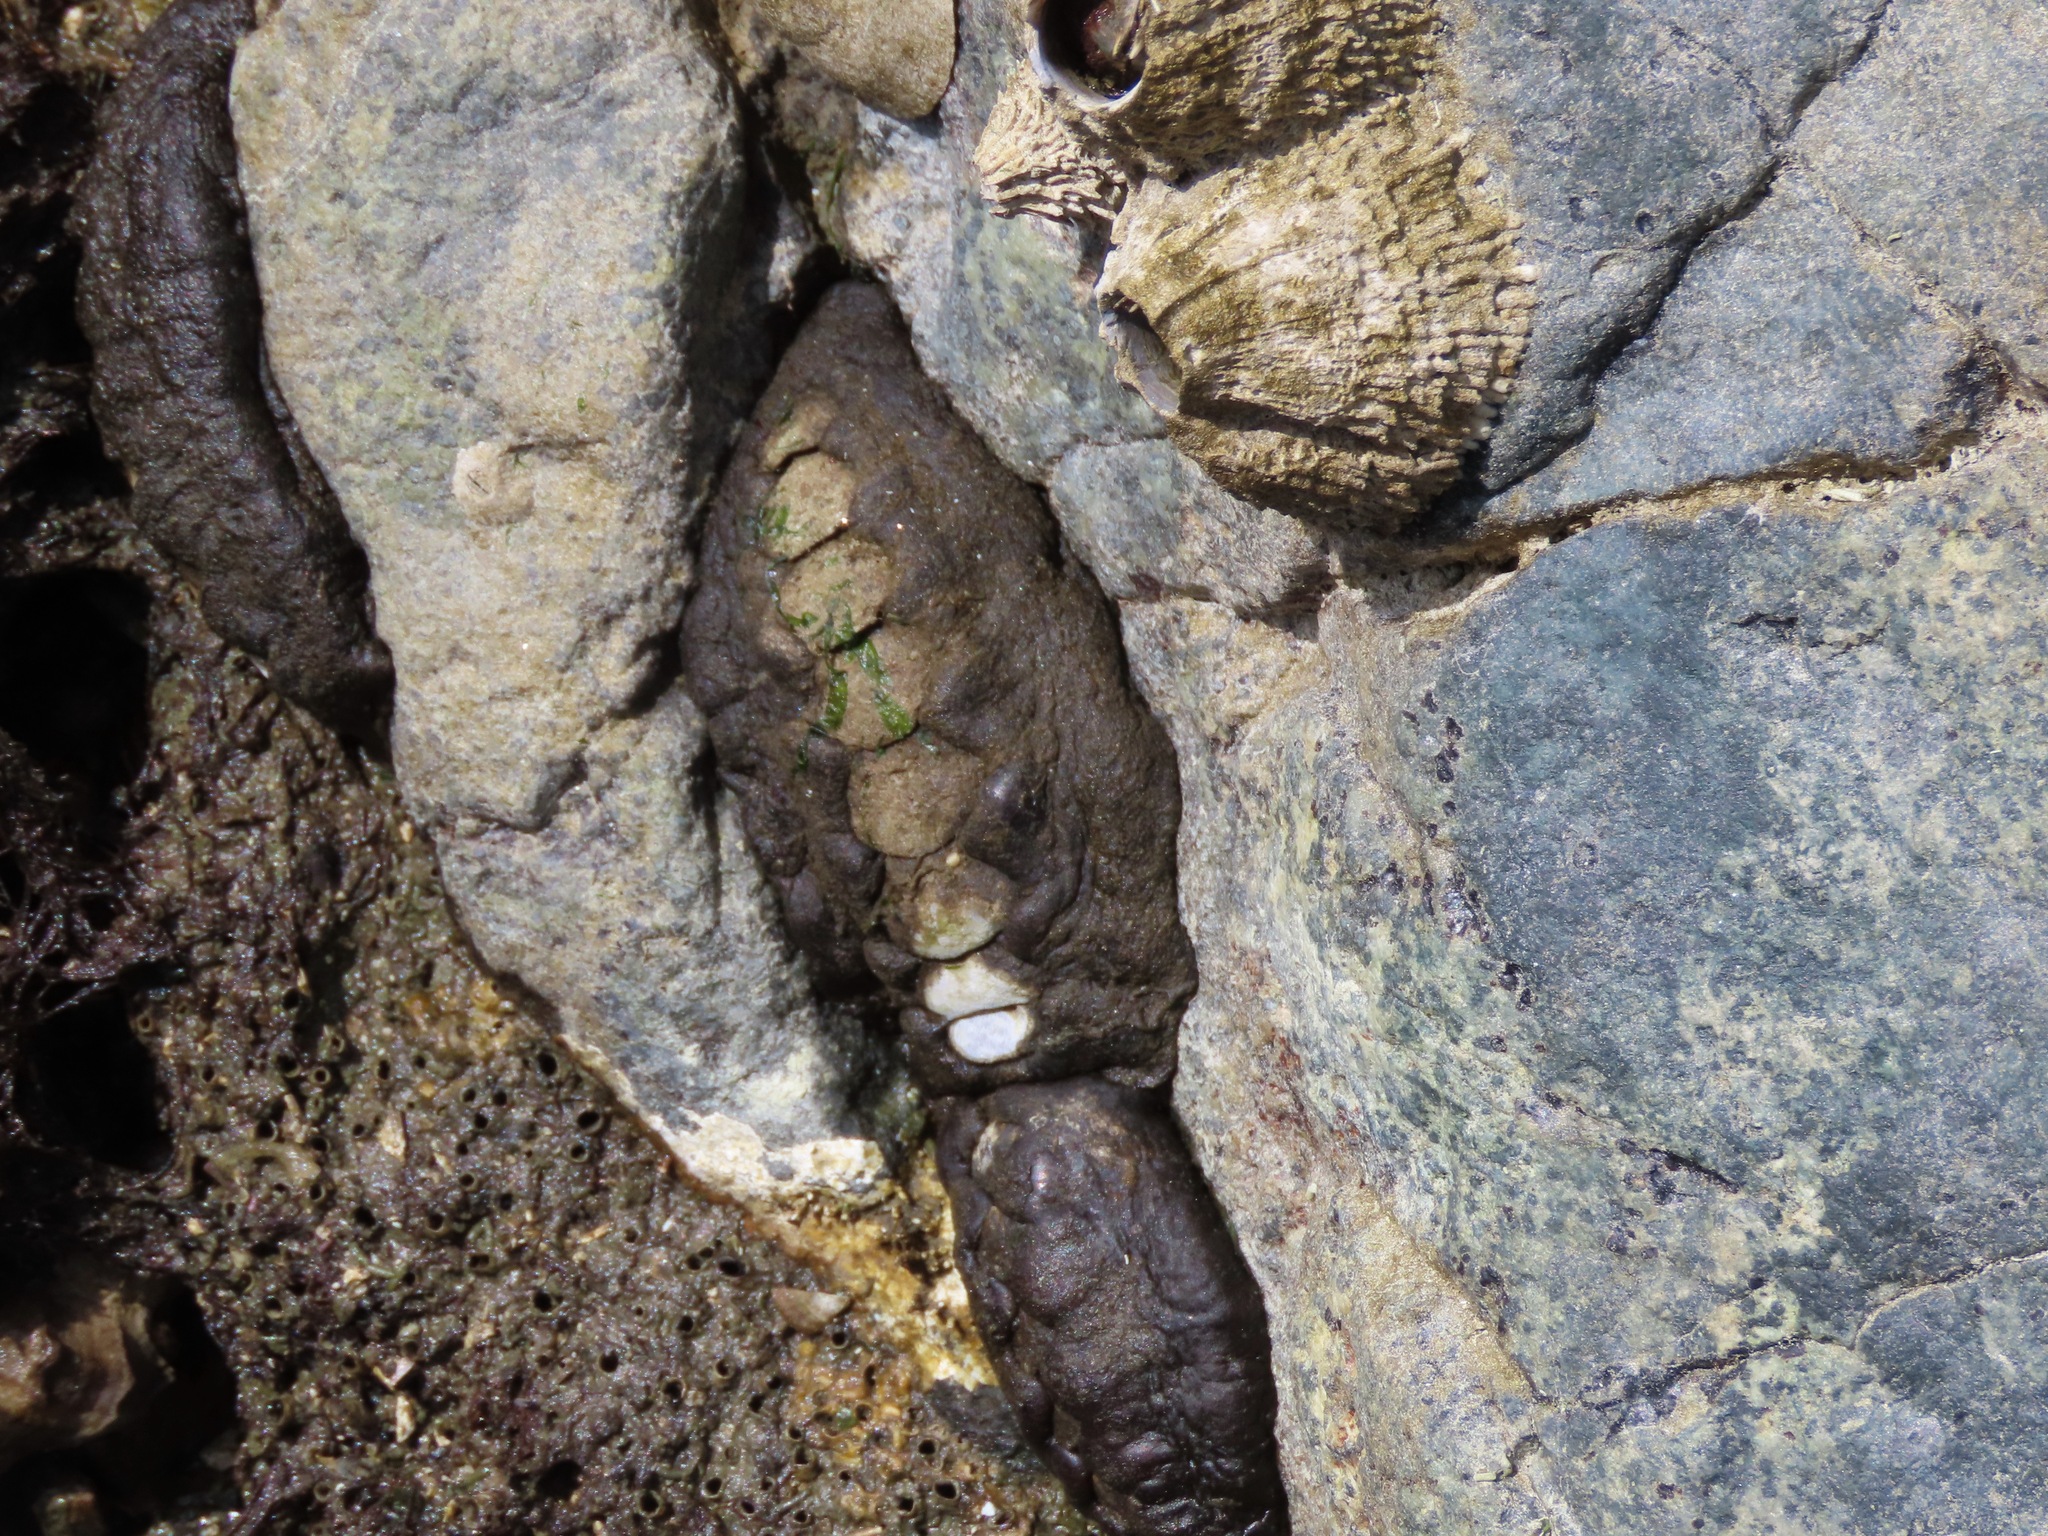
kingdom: Animalia
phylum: Mollusca
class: Polyplacophora
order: Chitonida
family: Mopaliidae
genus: Katharina
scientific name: Katharina tunicata
